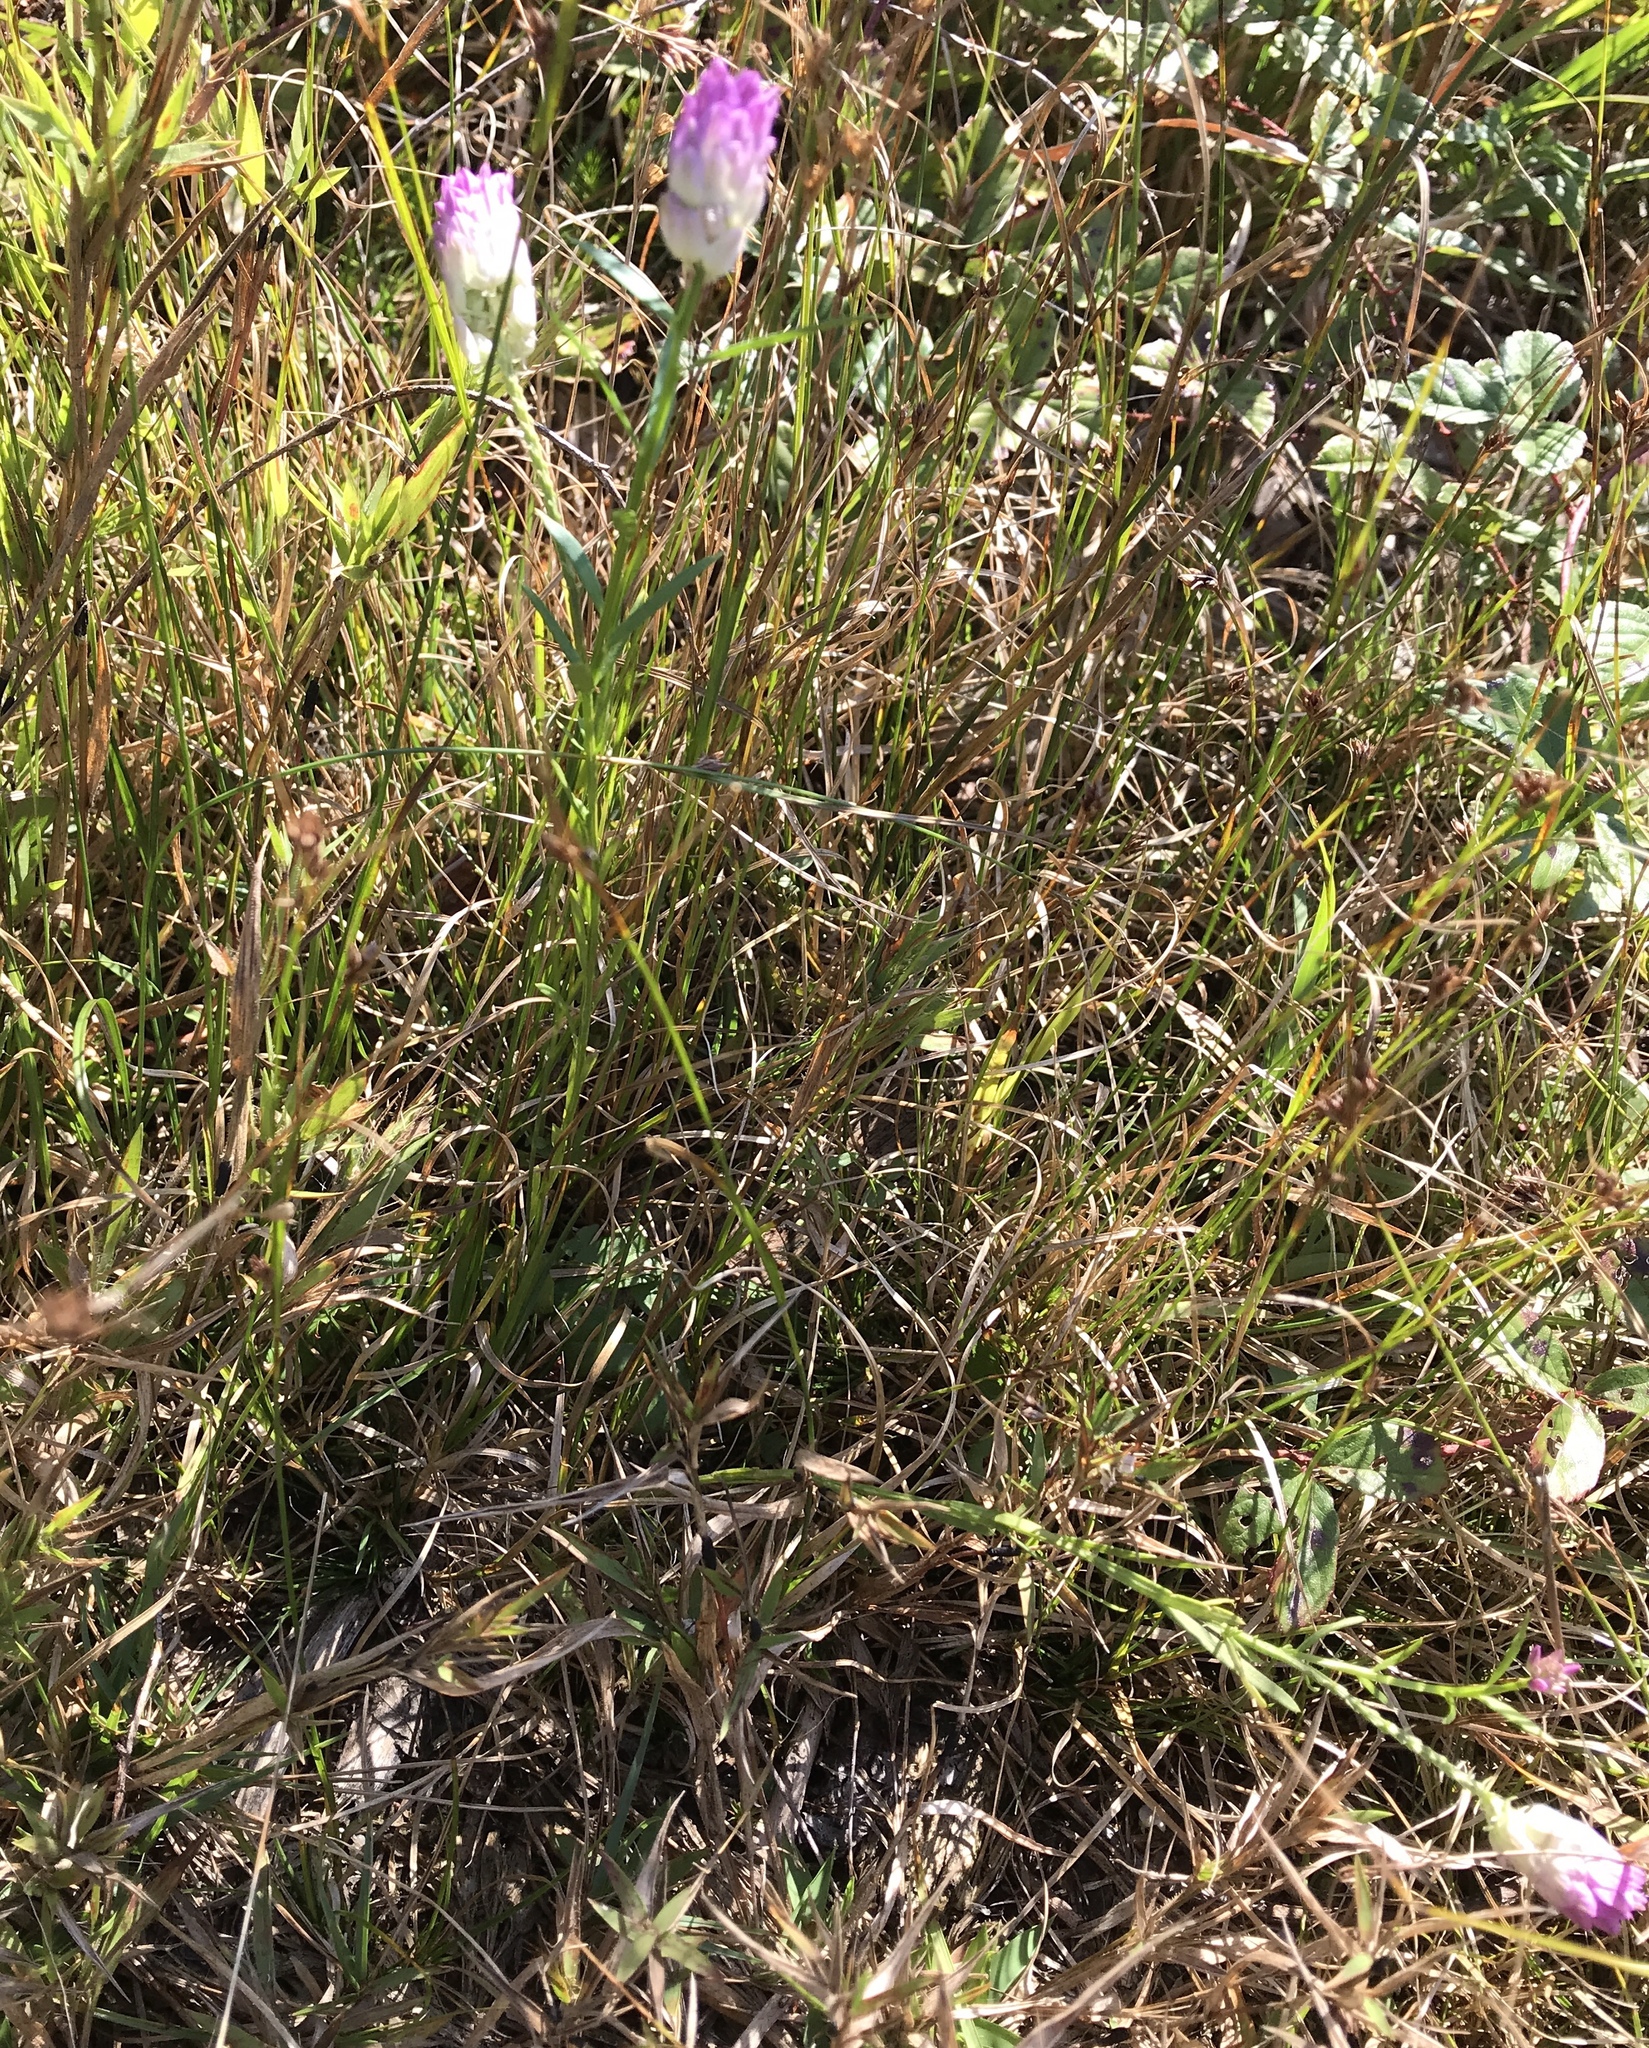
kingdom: Plantae
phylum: Tracheophyta
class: Magnoliopsida
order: Fabales
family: Polygalaceae
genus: Polygala
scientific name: Polygala sanguinea
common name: Blood milkwort
